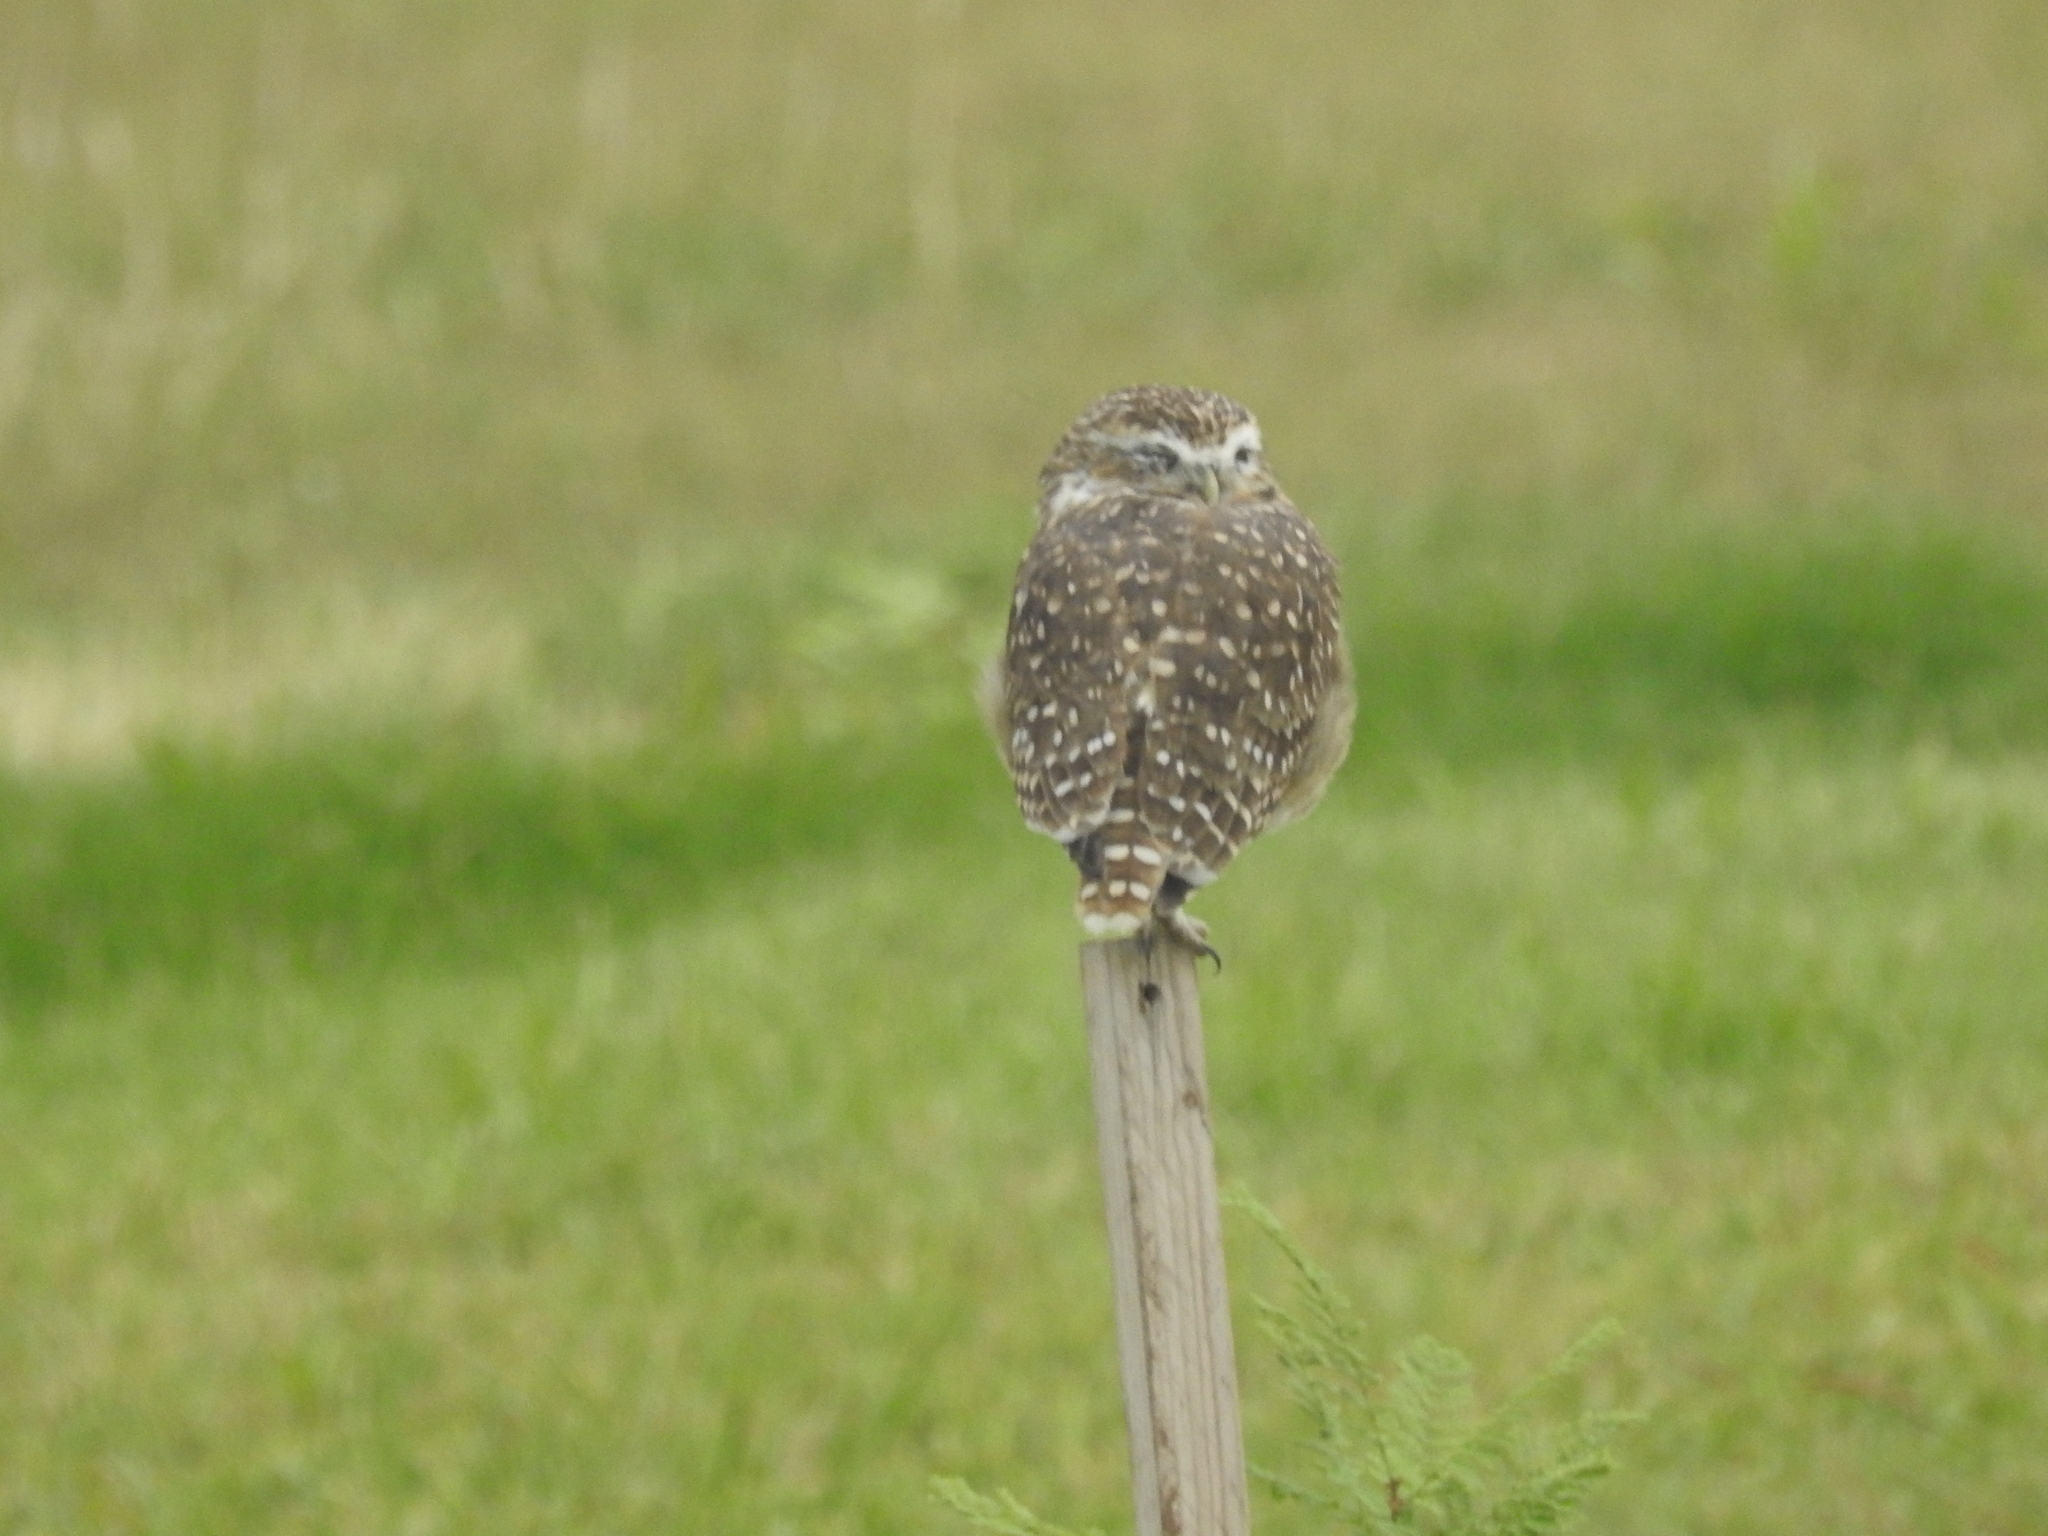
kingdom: Animalia
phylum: Chordata
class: Aves
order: Strigiformes
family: Strigidae
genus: Athene
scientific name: Athene cunicularia
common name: Burrowing owl
